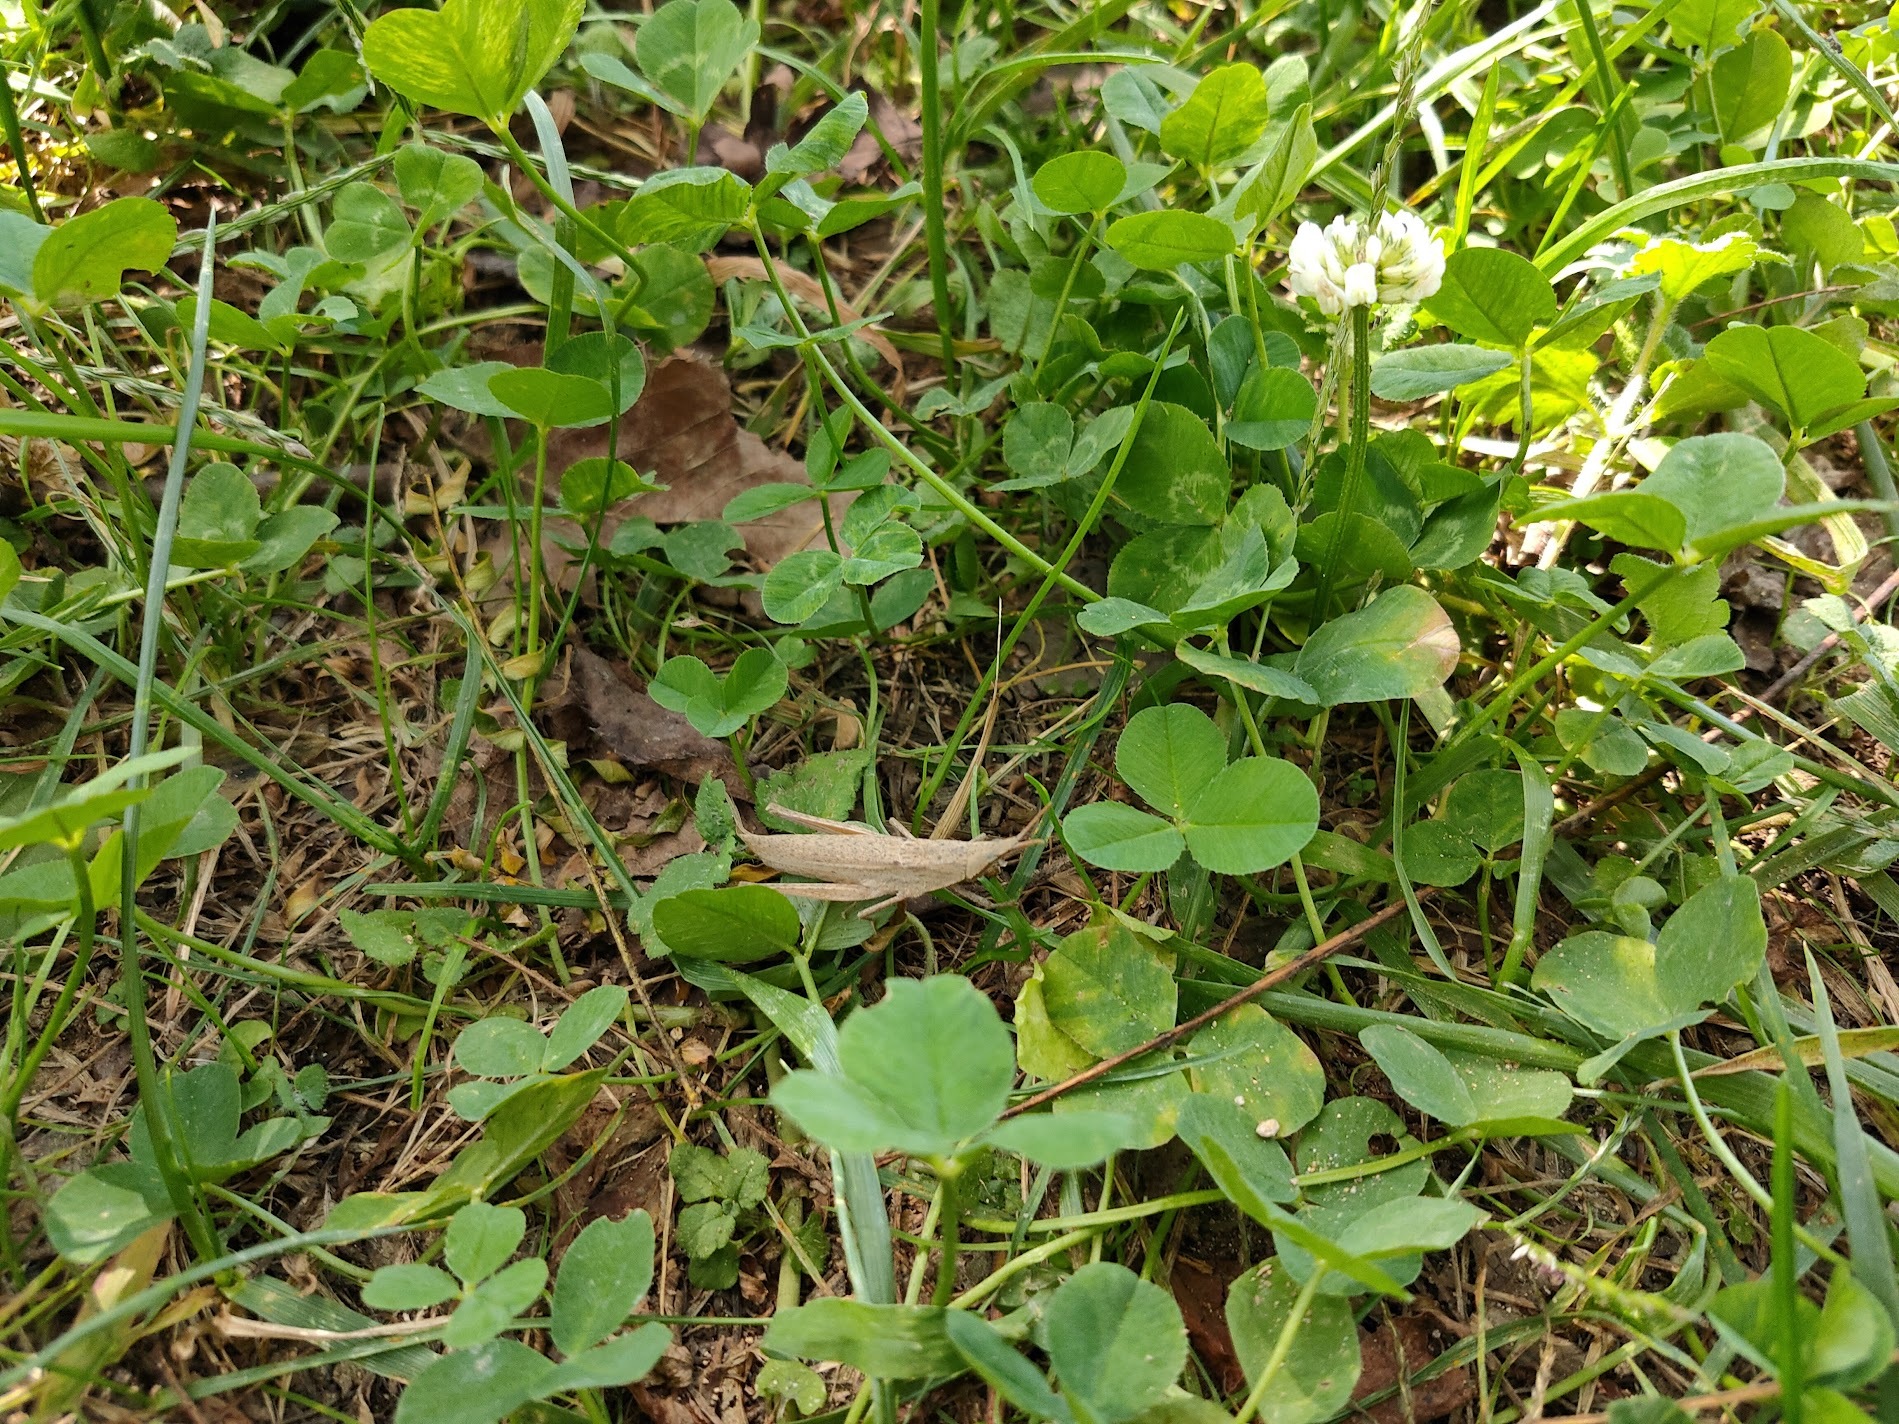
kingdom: Animalia
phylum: Arthropoda
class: Insecta
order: Orthoptera
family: Pyrgomorphidae
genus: Atractomorpha
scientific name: Atractomorpha lata
